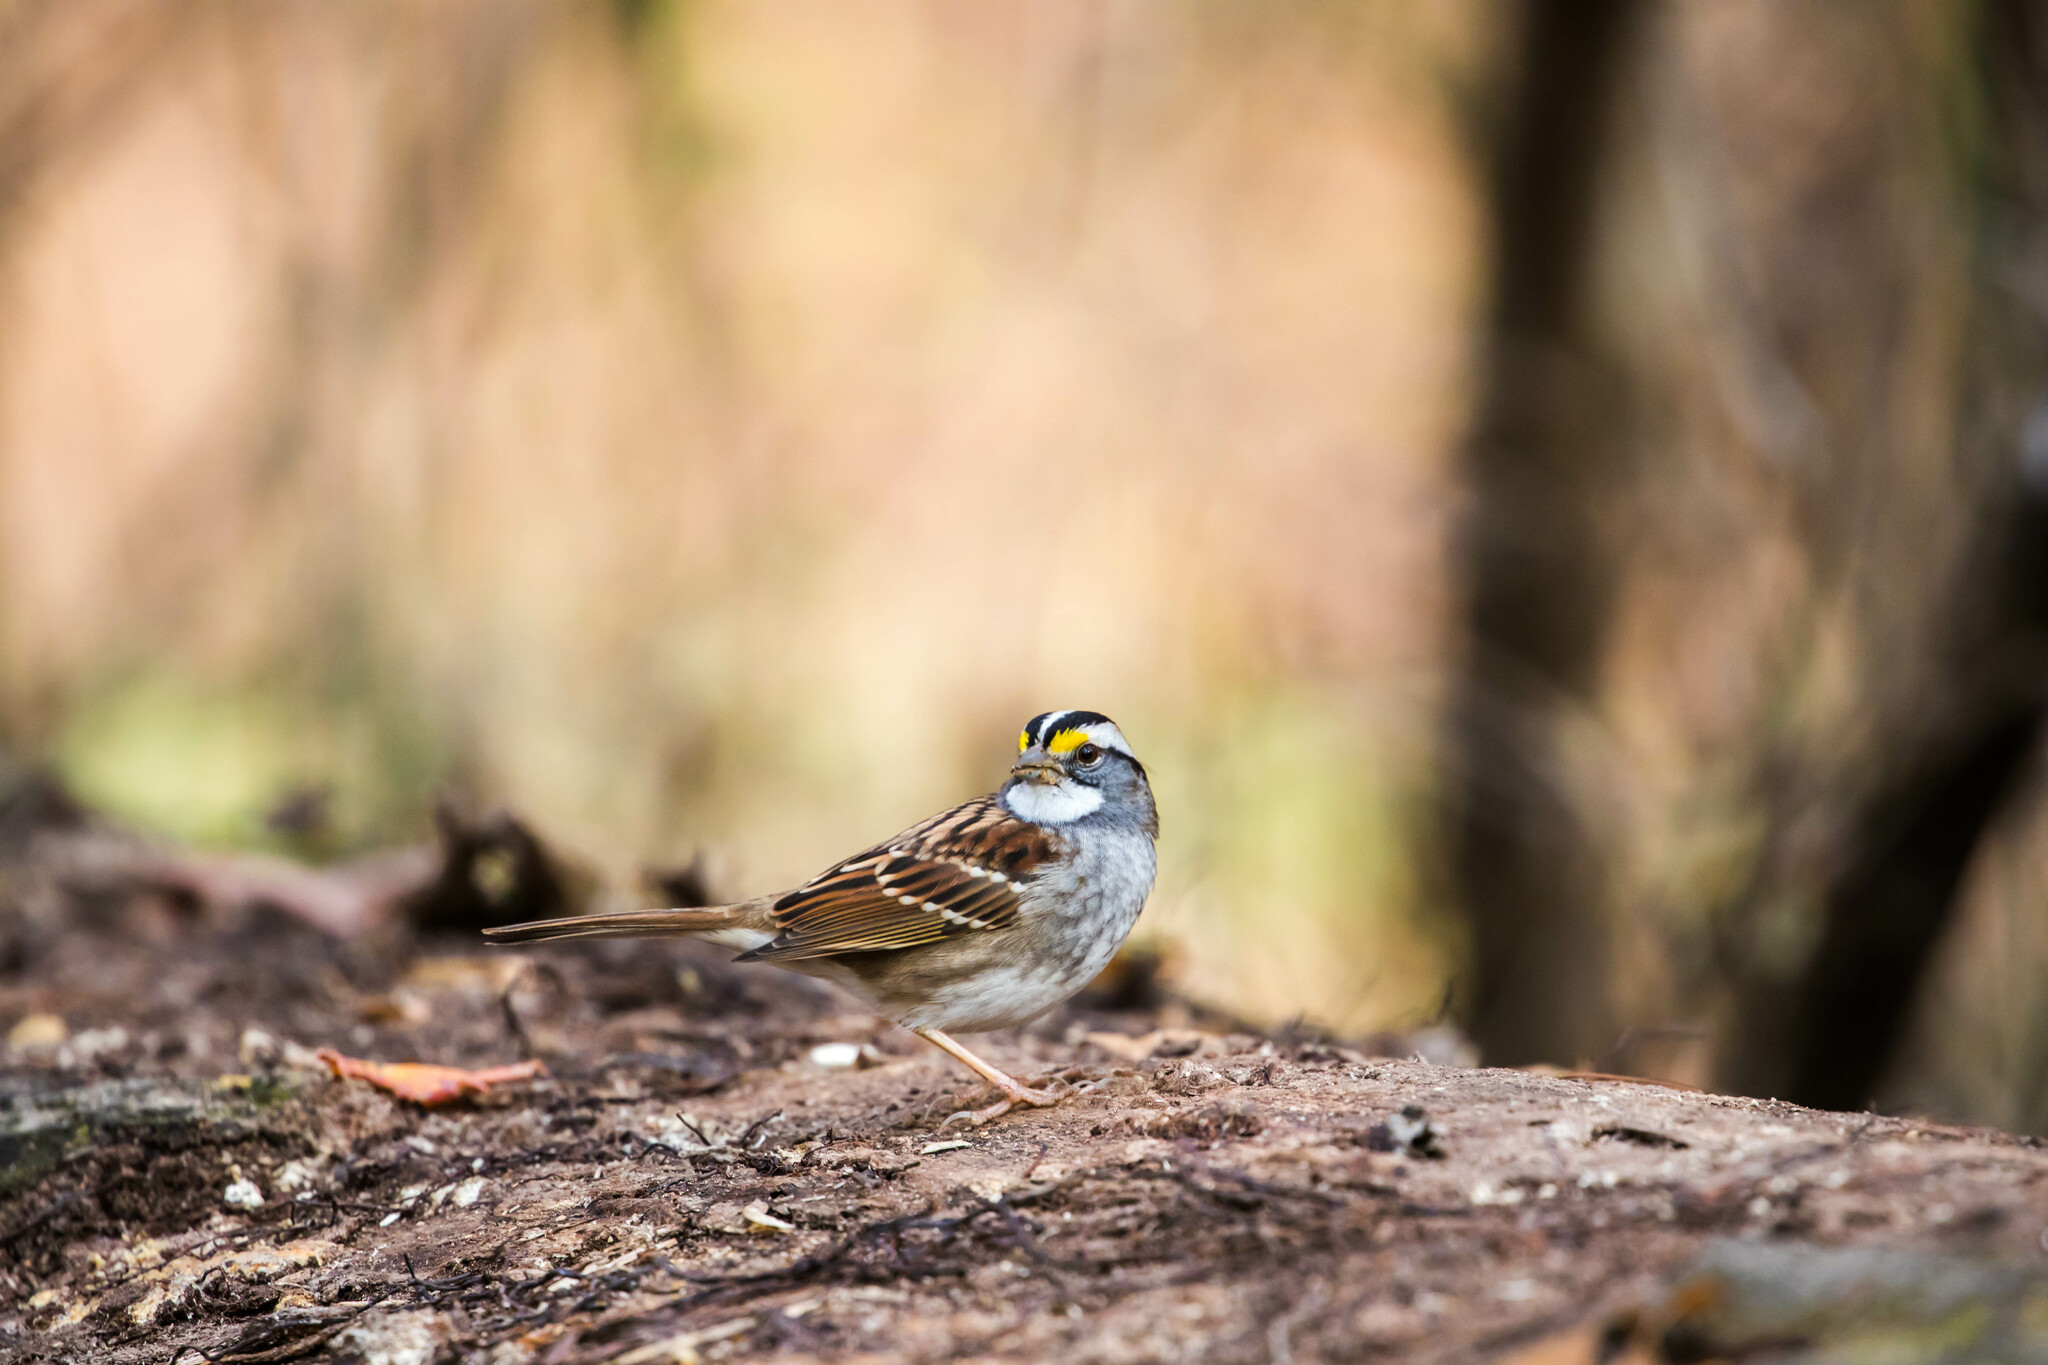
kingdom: Animalia
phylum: Chordata
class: Aves
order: Passeriformes
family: Passerellidae
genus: Zonotrichia
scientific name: Zonotrichia albicollis
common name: White-throated sparrow
